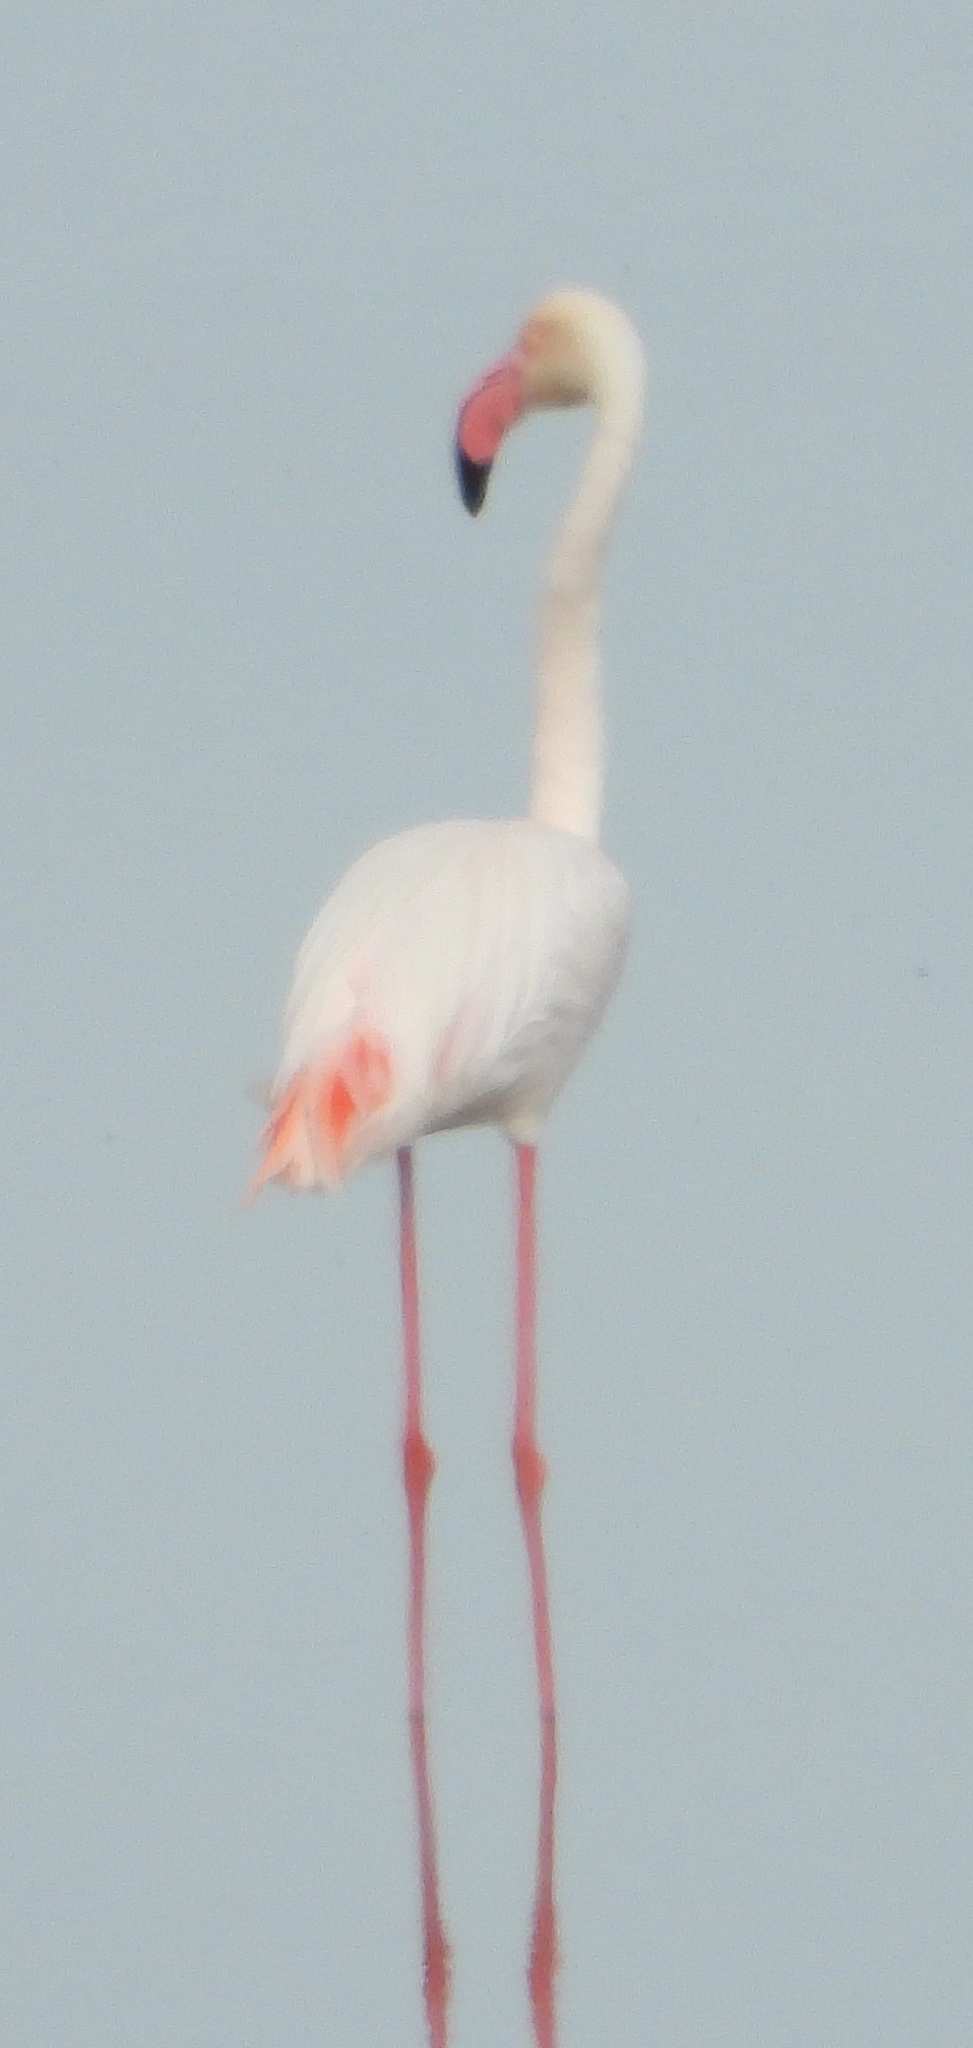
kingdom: Animalia
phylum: Chordata
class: Aves
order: Phoenicopteriformes
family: Phoenicopteridae
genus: Phoenicopterus
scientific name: Phoenicopterus roseus
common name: Greater flamingo
